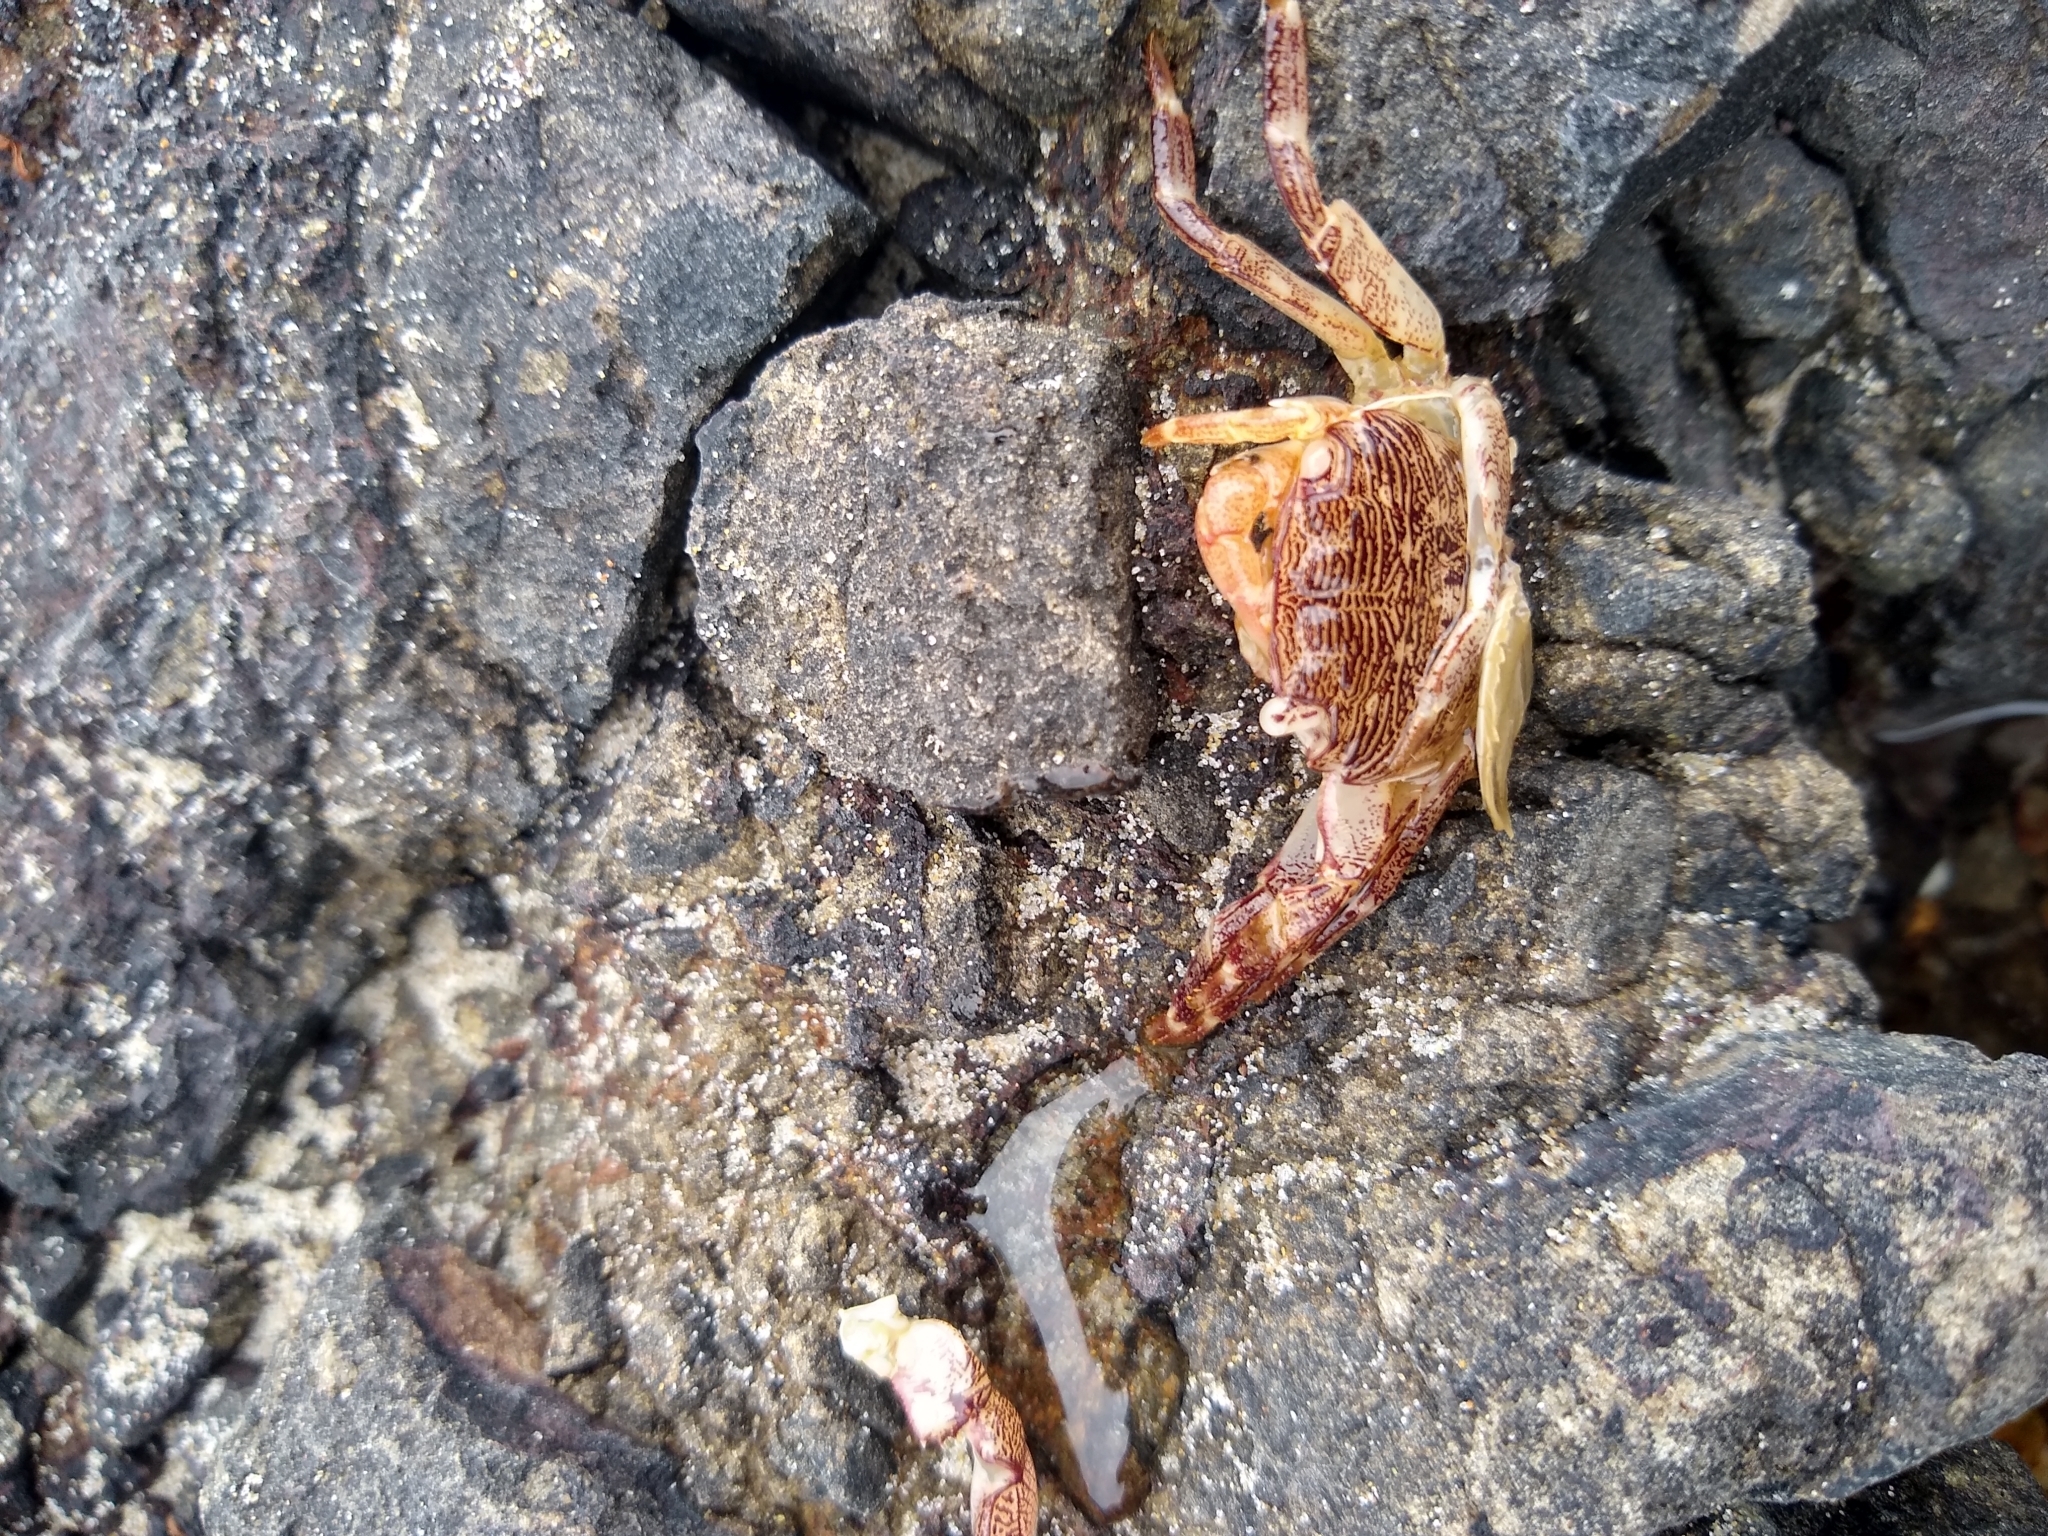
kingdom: Animalia
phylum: Arthropoda
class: Malacostraca
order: Decapoda
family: Grapsidae
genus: Pachygrapsus
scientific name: Pachygrapsus crassipes
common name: Striped shore crab
